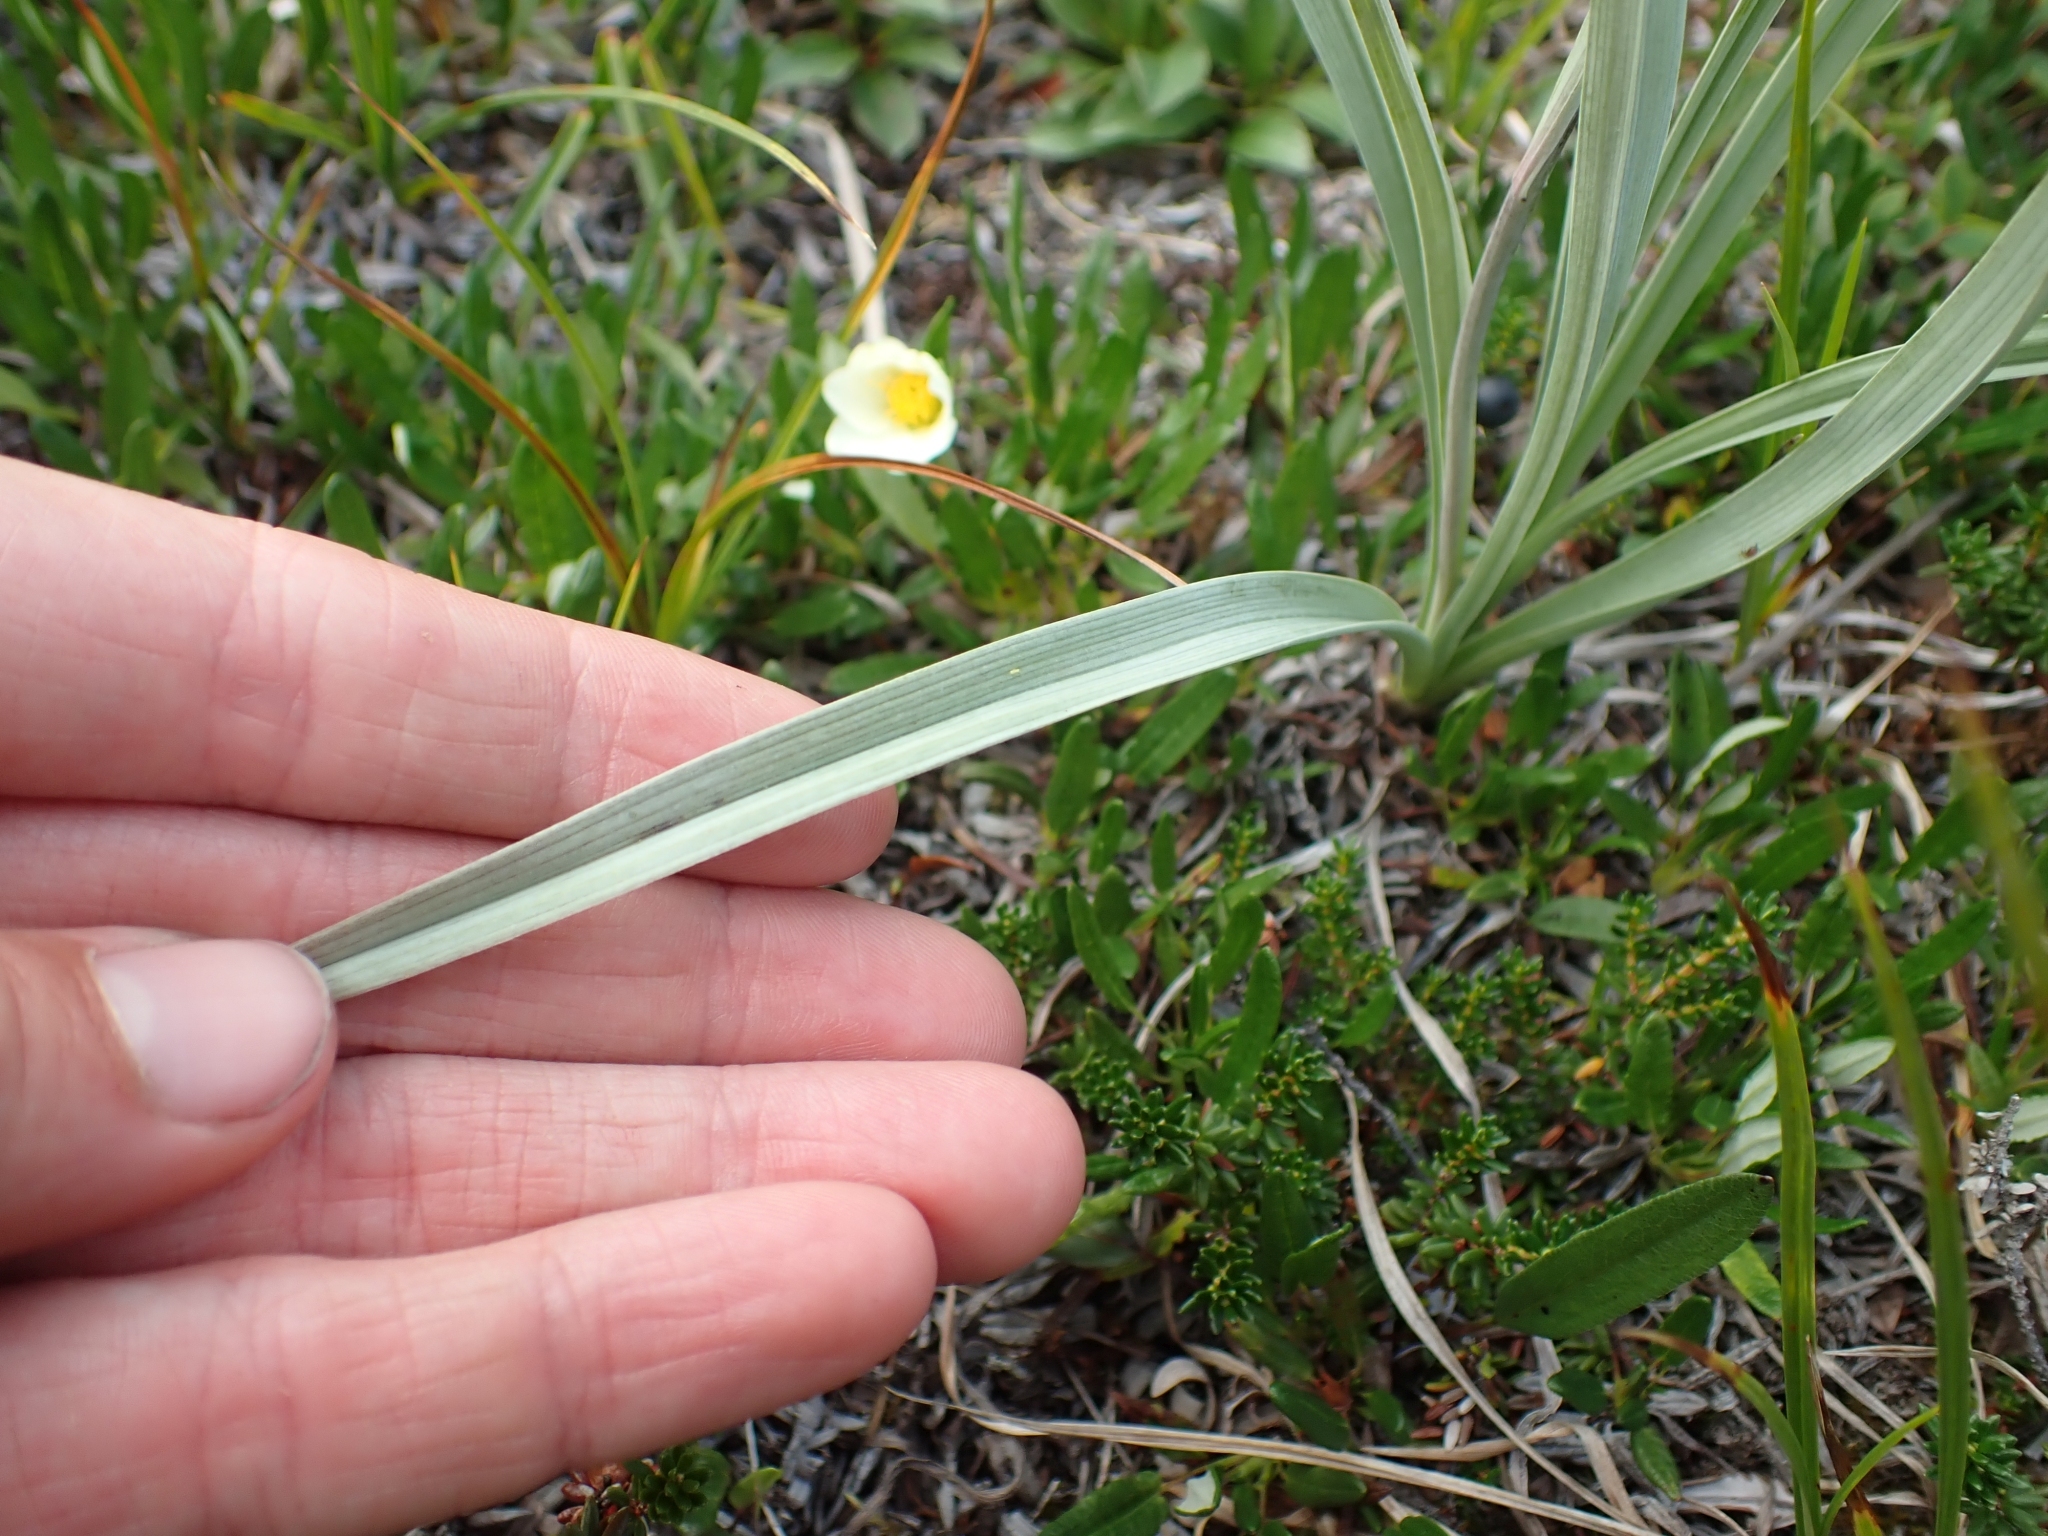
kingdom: Plantae
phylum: Tracheophyta
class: Liliopsida
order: Liliales
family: Melanthiaceae
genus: Anticlea
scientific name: Anticlea elegans
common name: Mountain death camas
